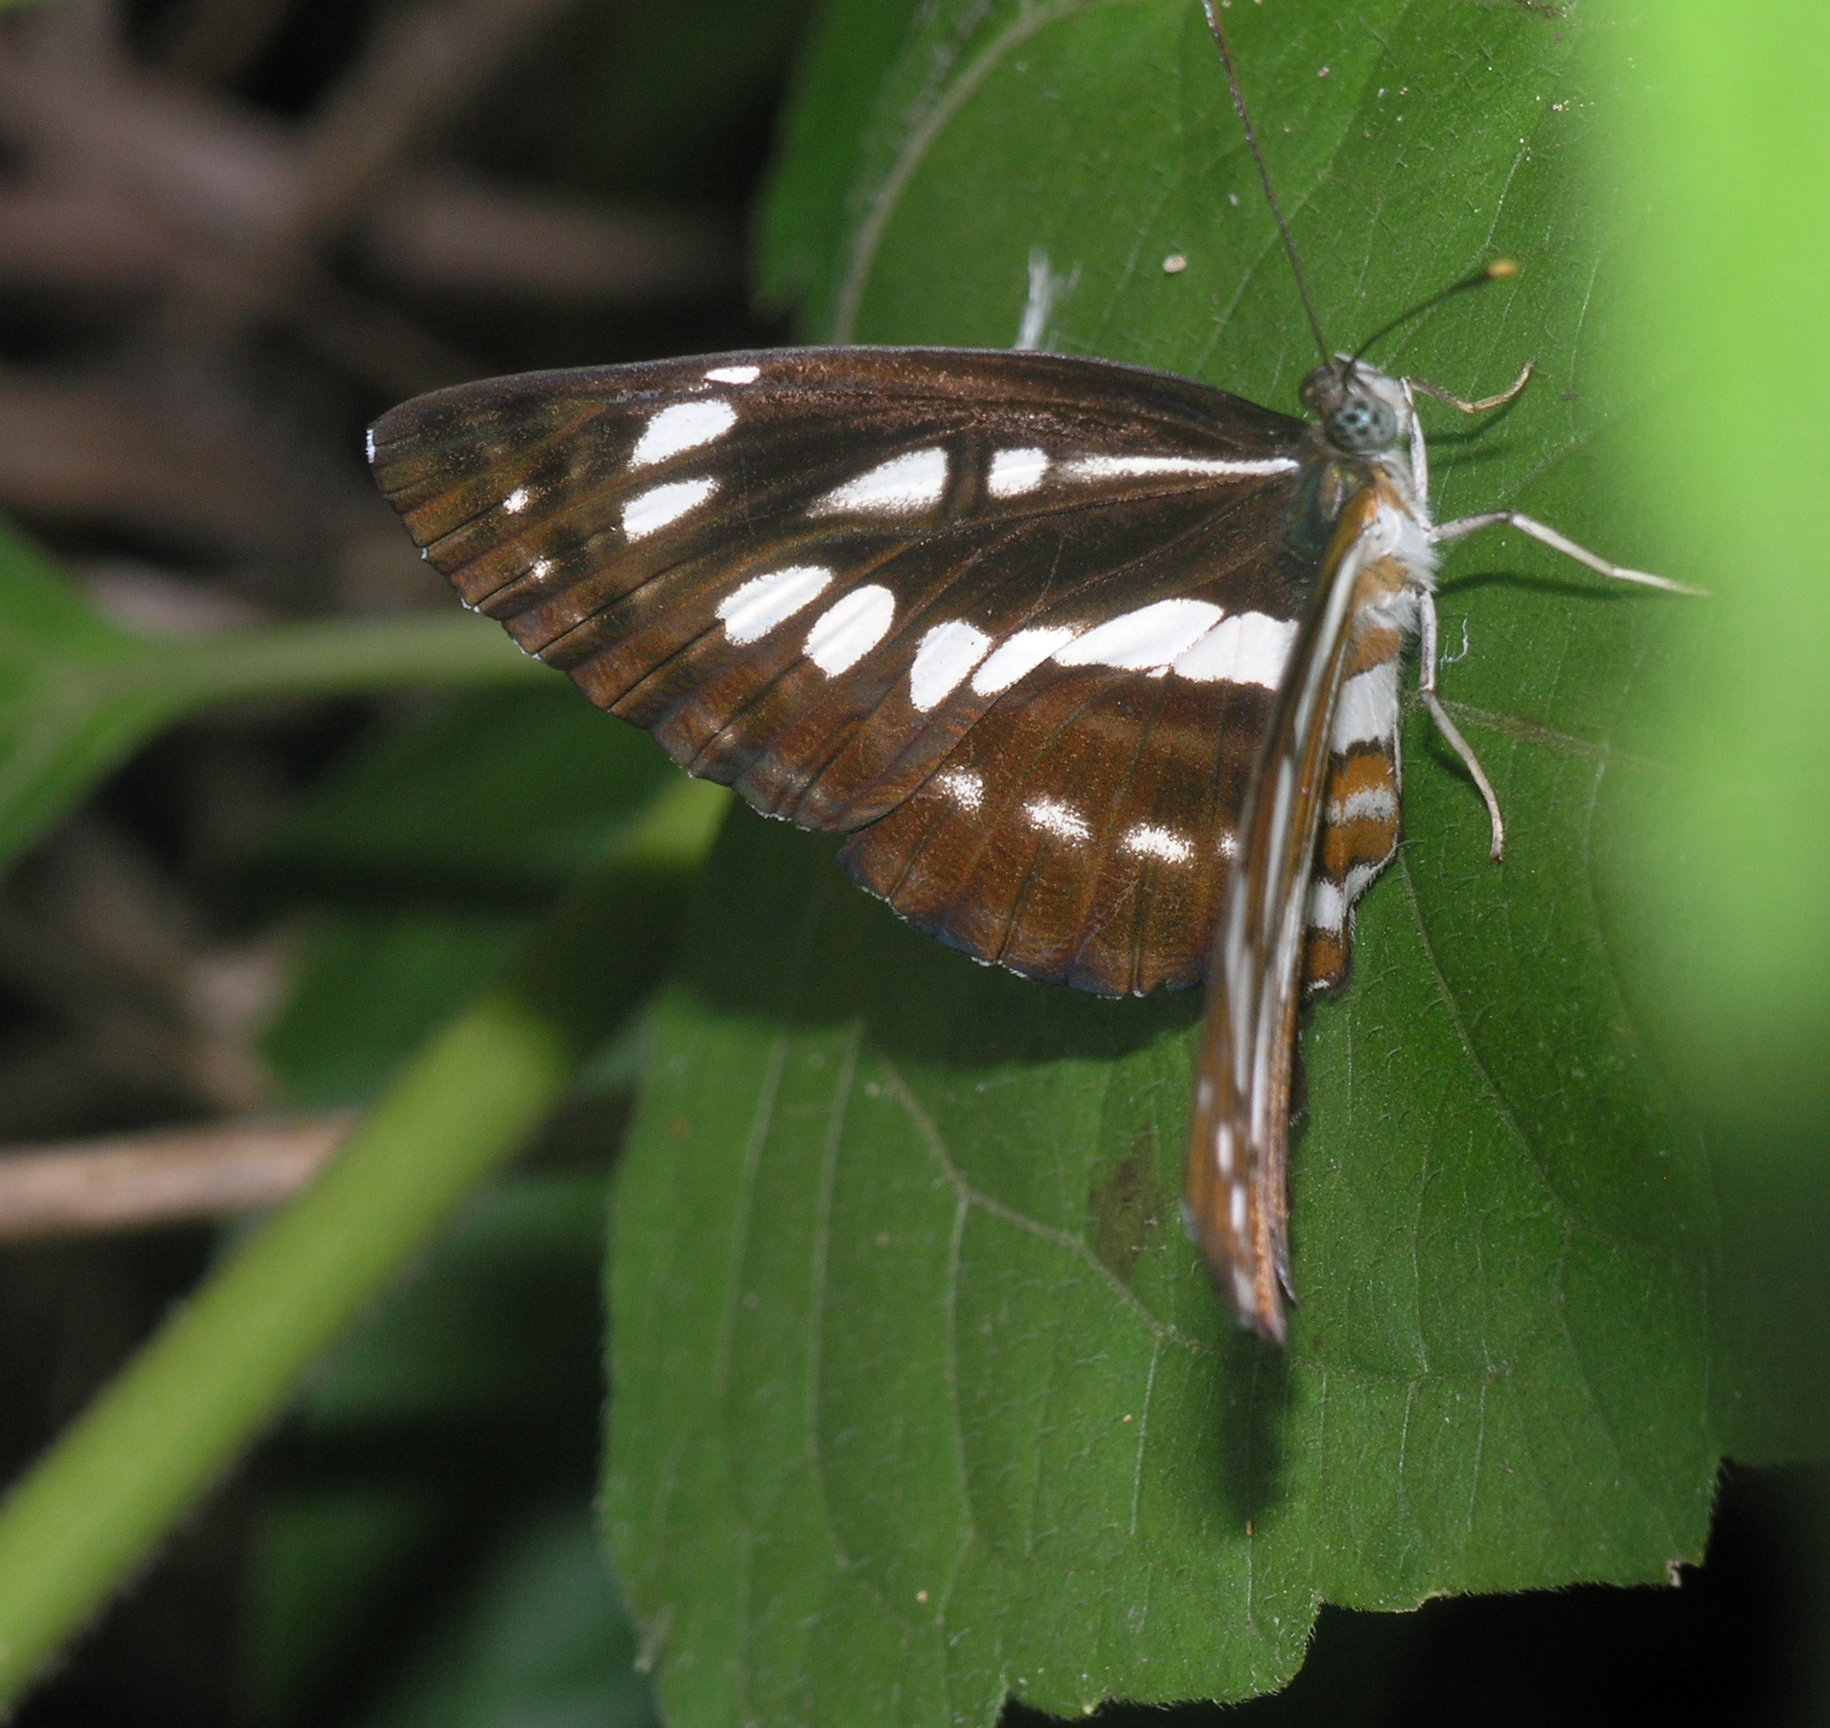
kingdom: Animalia
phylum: Arthropoda
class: Insecta
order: Lepidoptera
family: Nymphalidae
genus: Neptis
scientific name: Neptis hylas
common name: Common sailer
